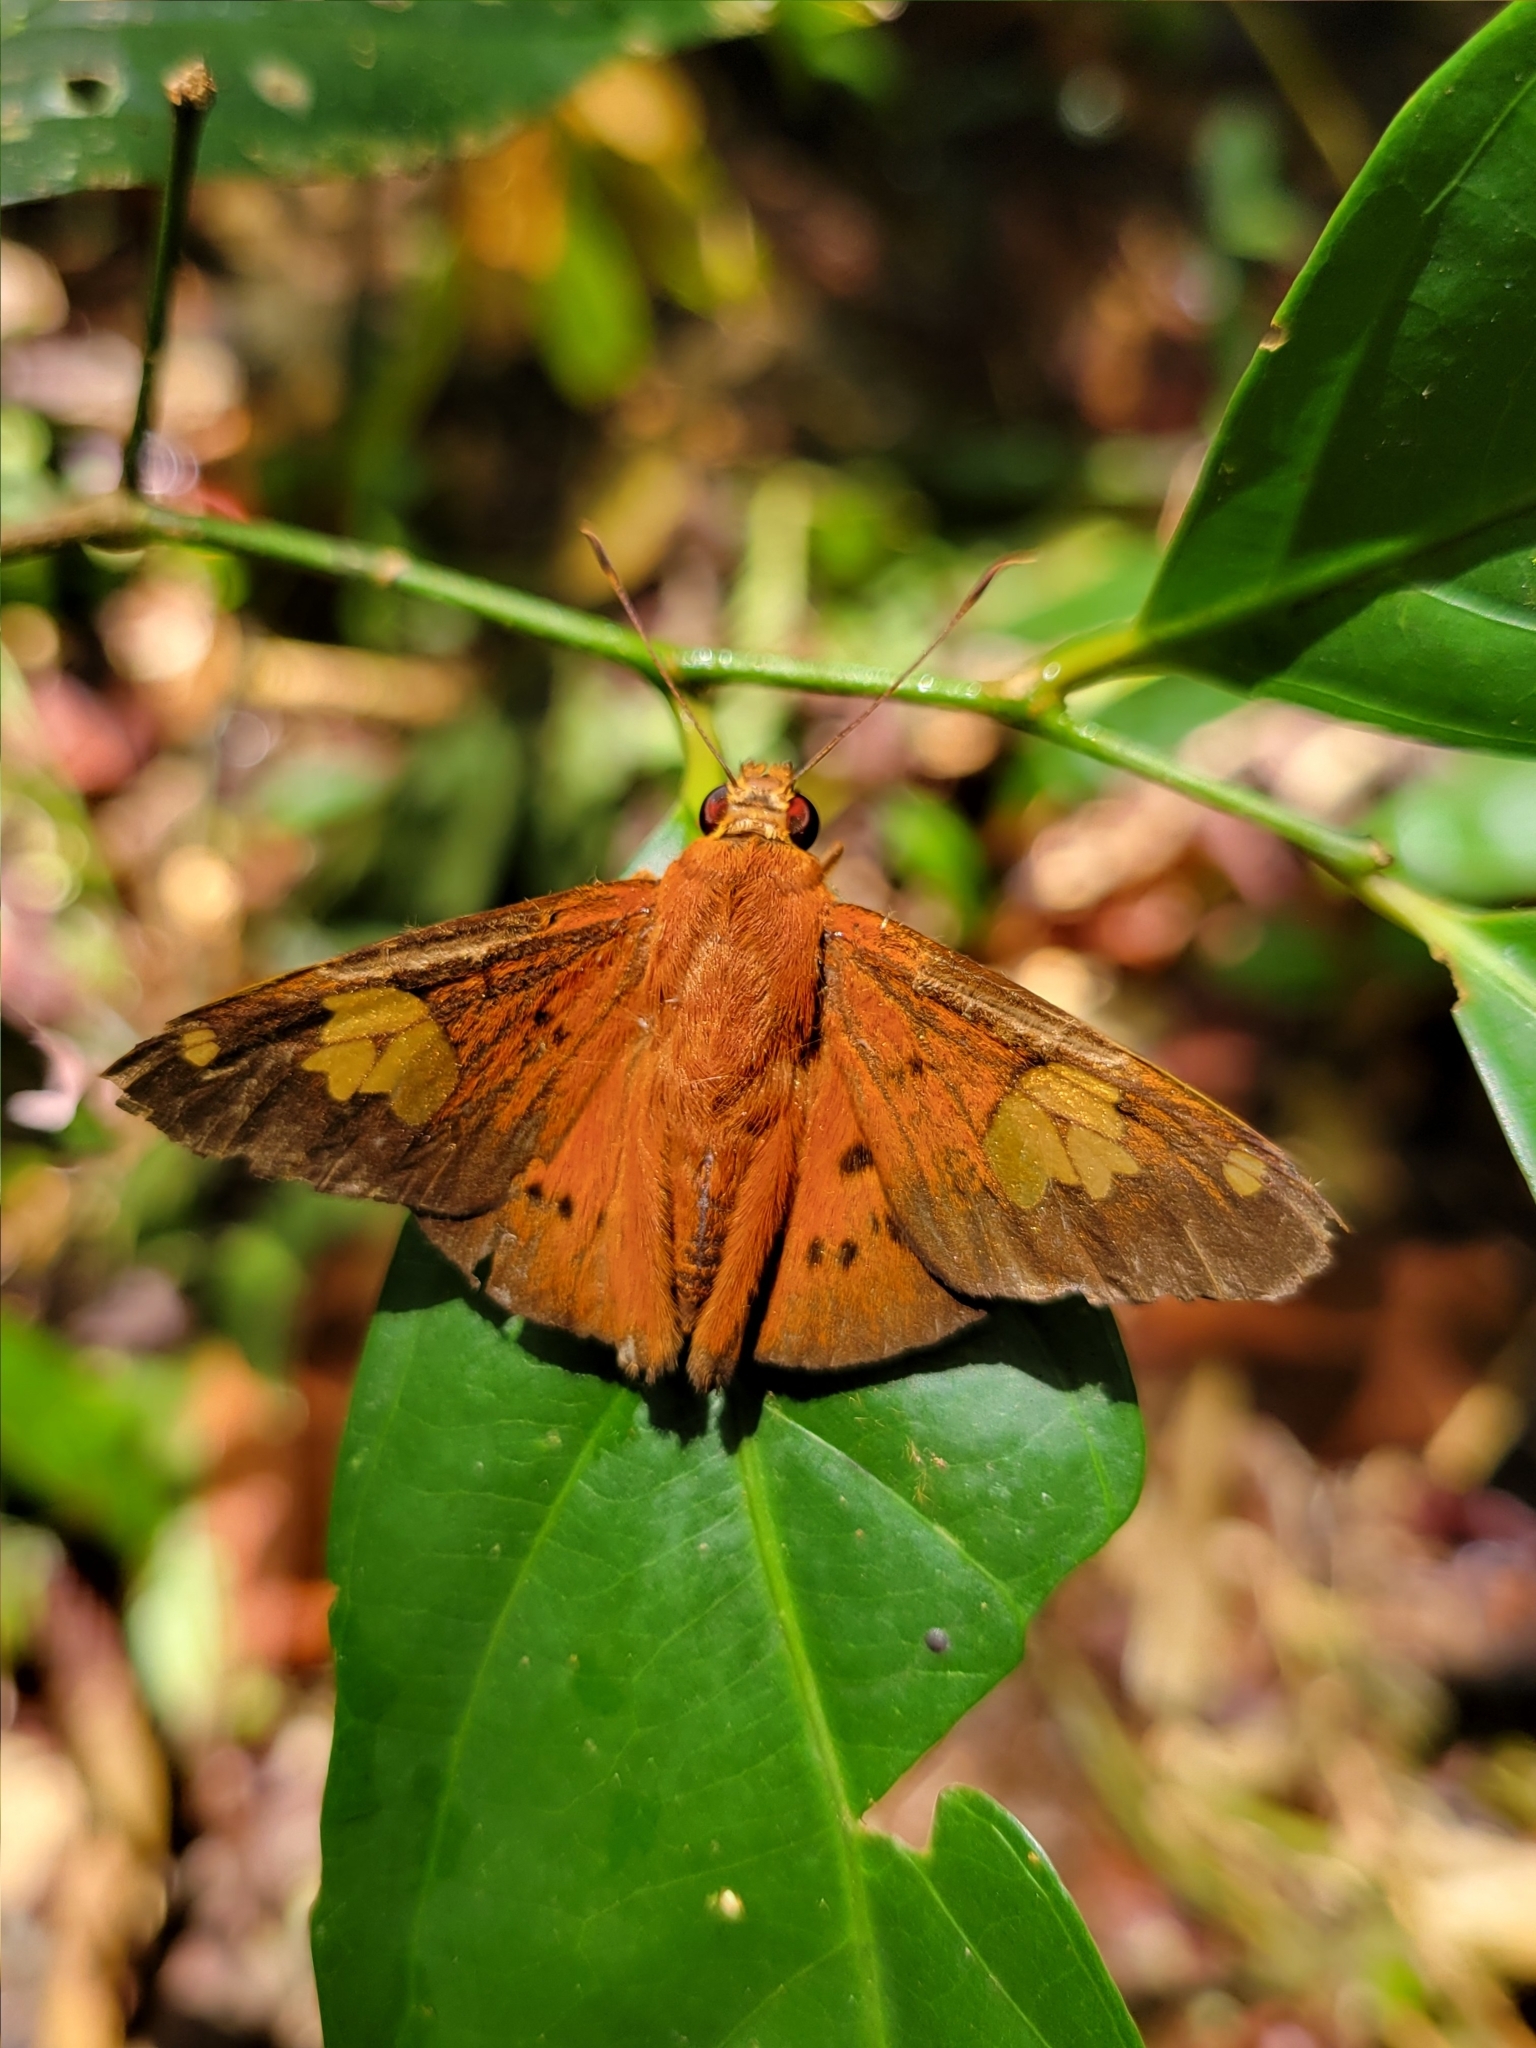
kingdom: Animalia
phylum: Arthropoda
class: Insecta
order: Lepidoptera
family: Hesperiidae
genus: Dyscophellus
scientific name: Dyscophellus euribates
